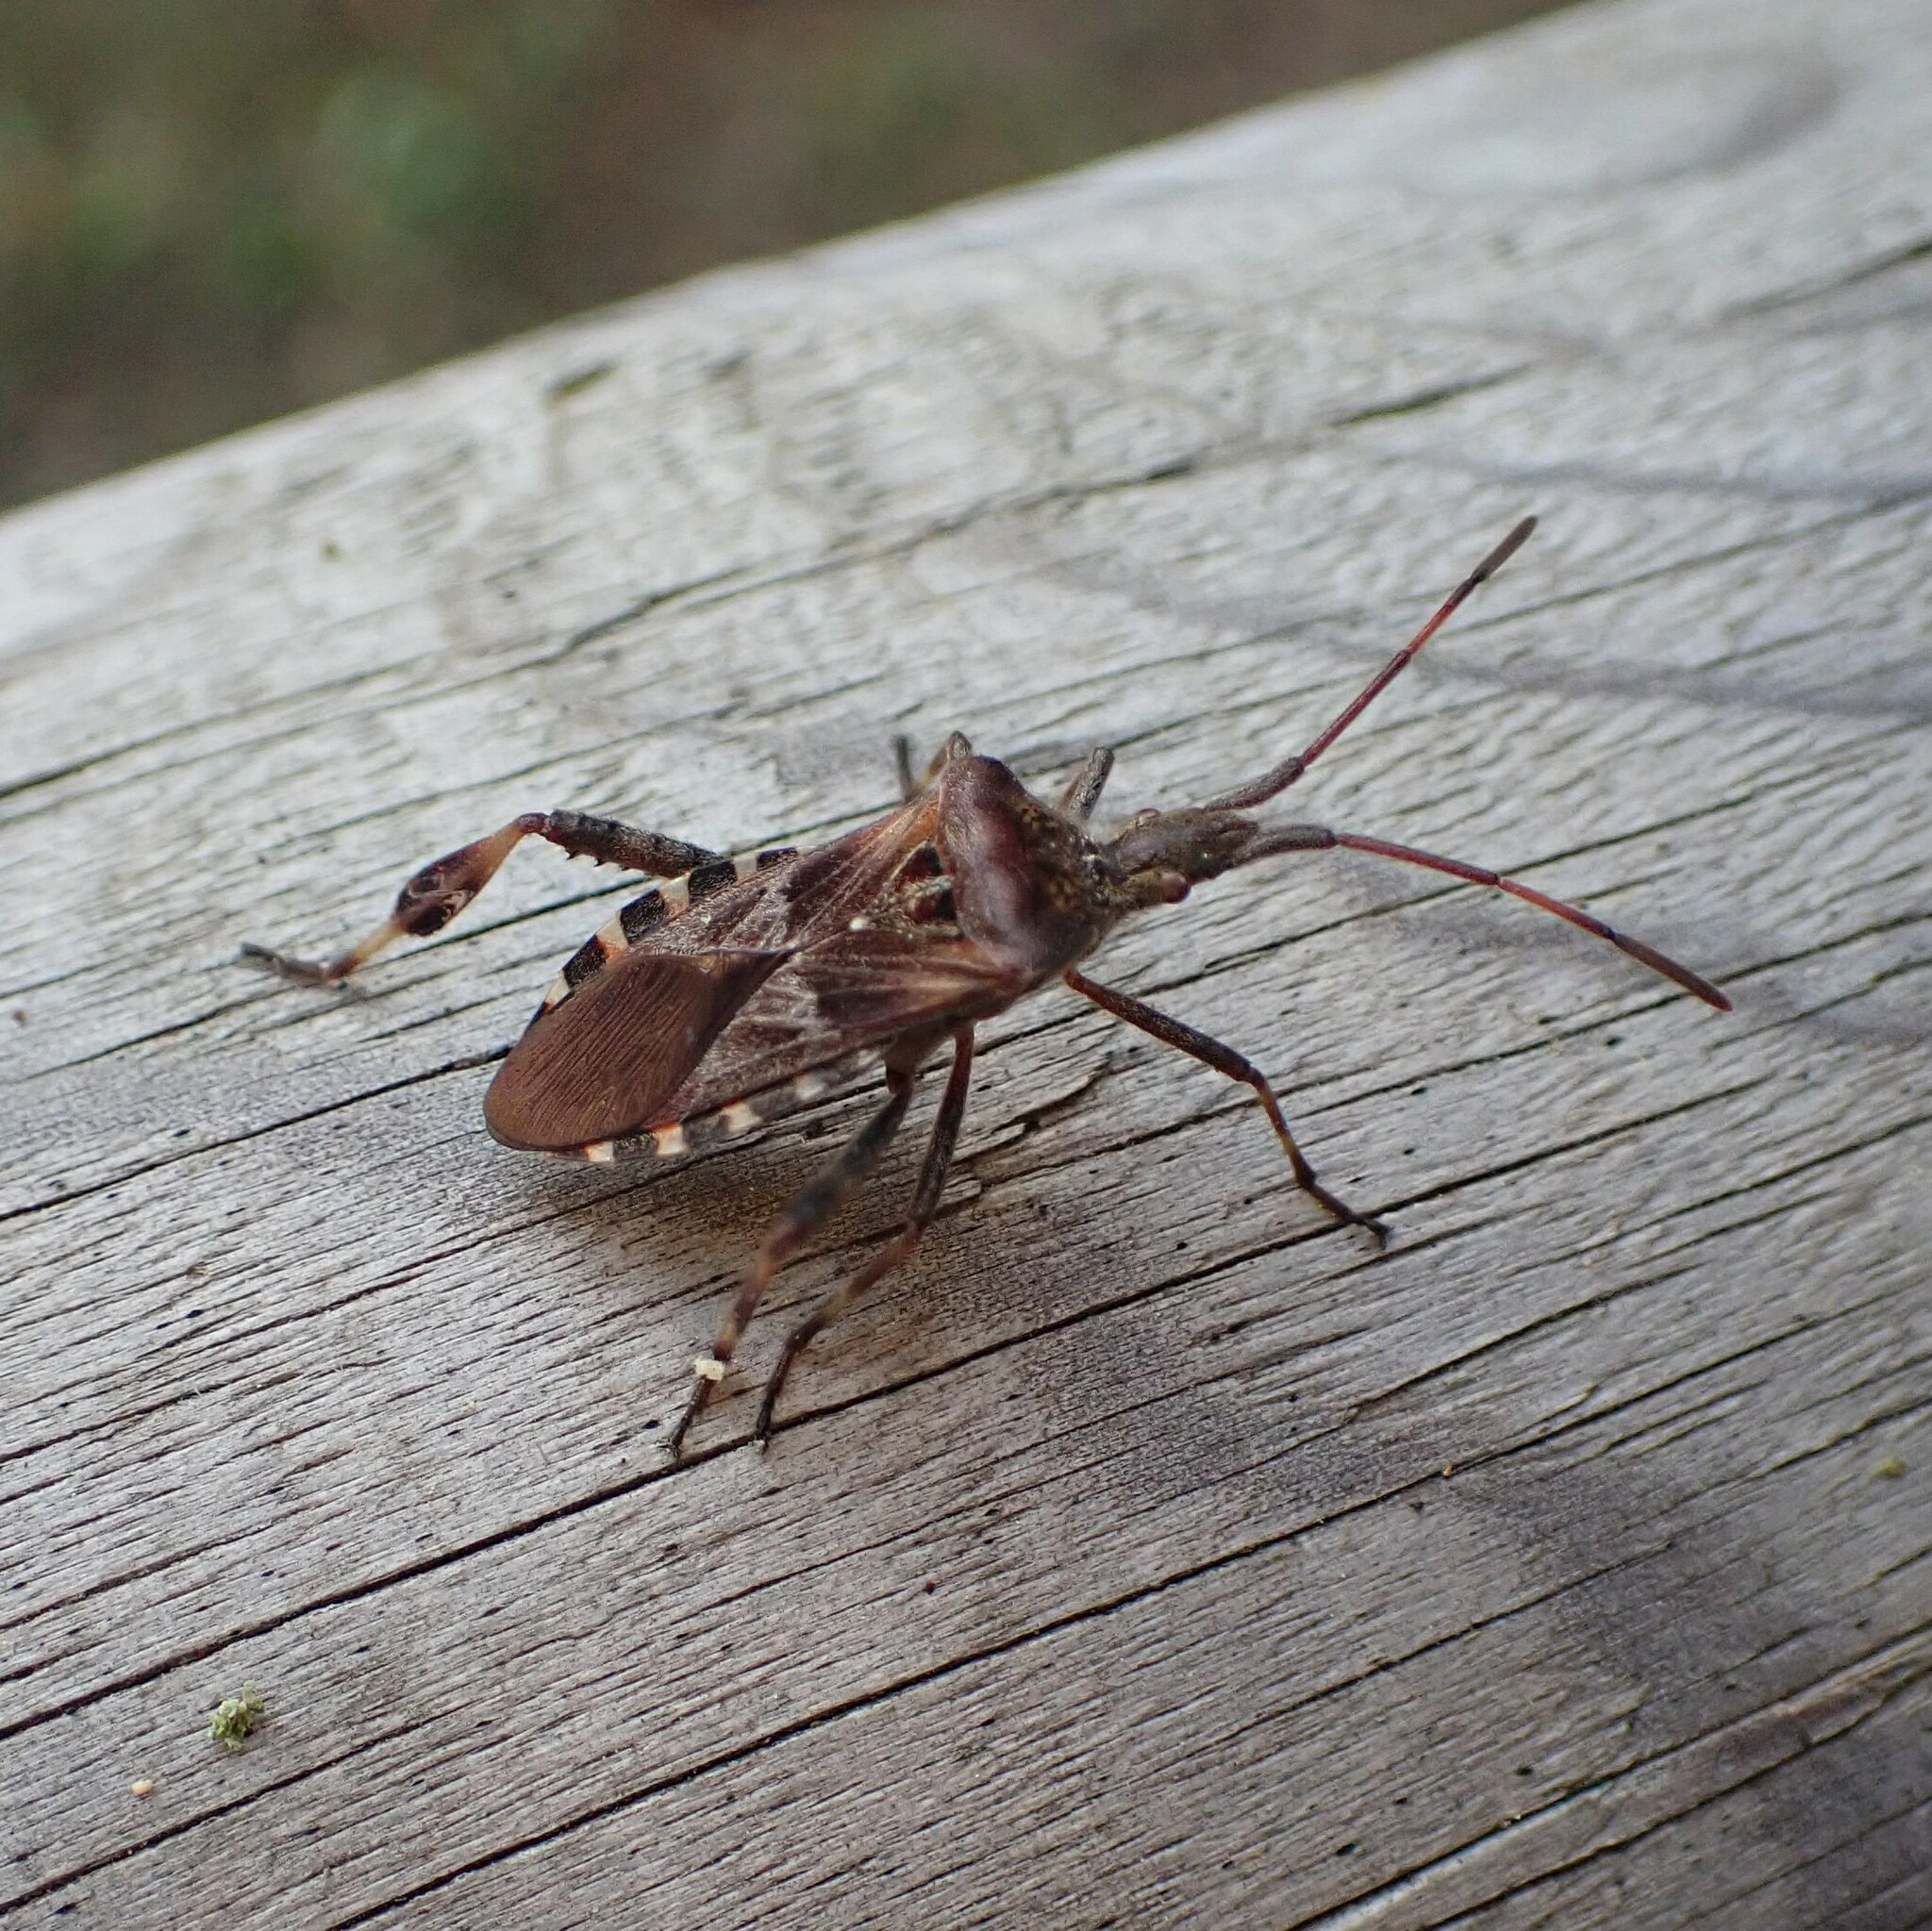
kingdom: Animalia
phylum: Arthropoda
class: Insecta
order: Hemiptera
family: Coreidae
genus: Leptoglossus
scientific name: Leptoglossus occidentalis
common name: Western conifer-seed bug
